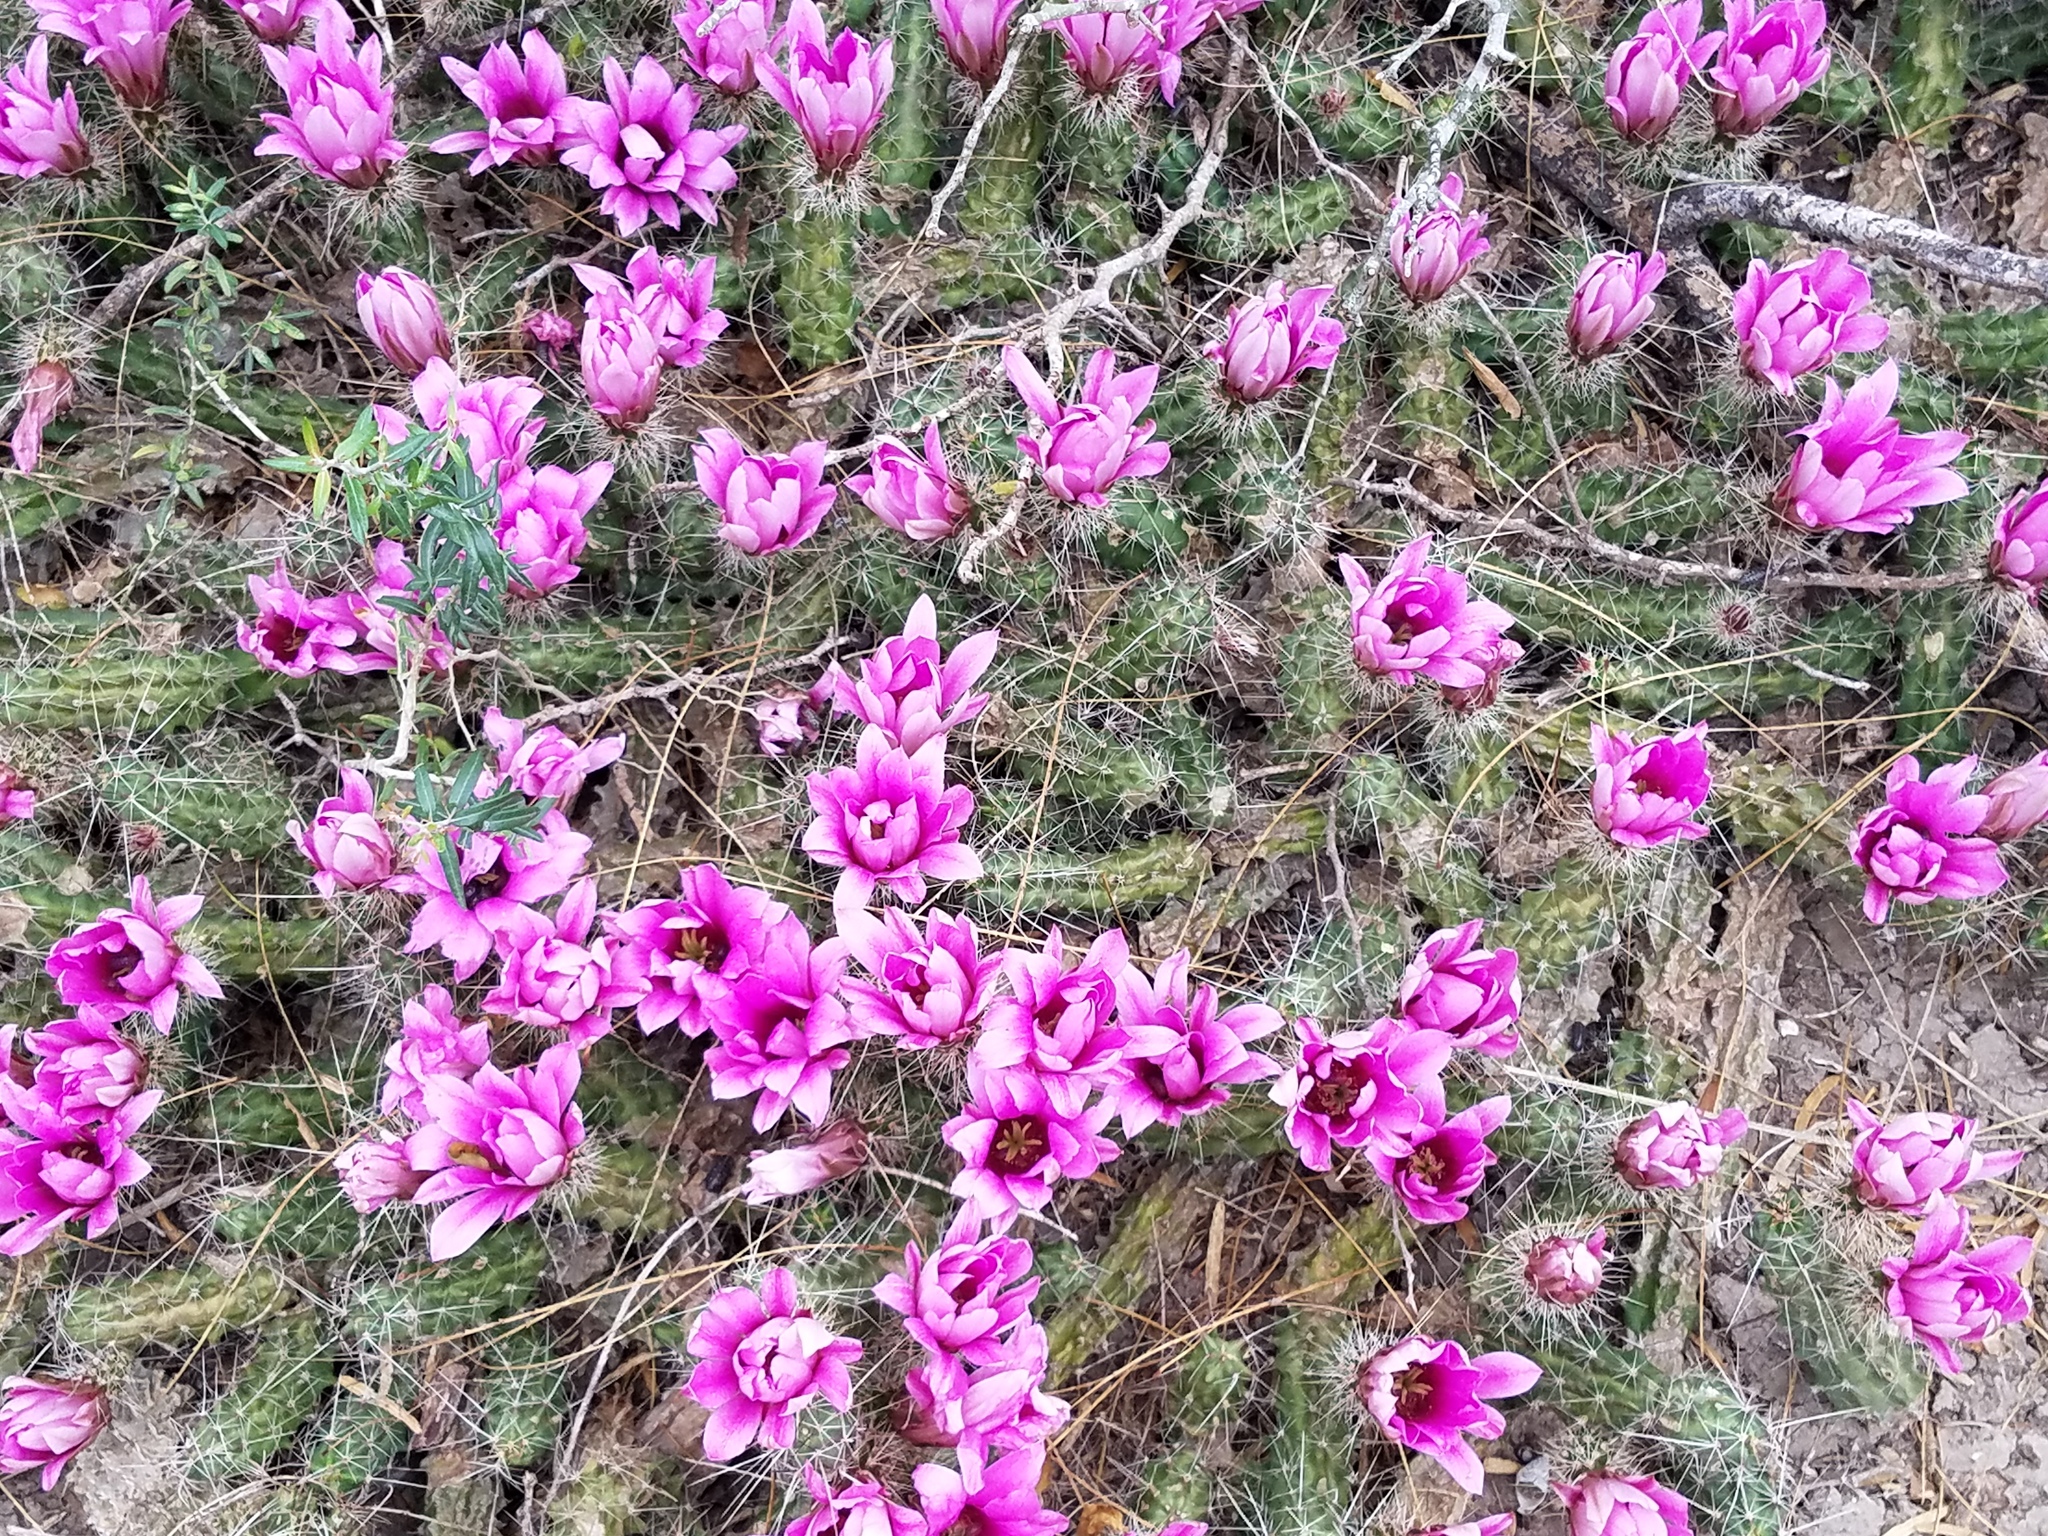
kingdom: Plantae
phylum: Tracheophyta
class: Magnoliopsida
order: Caryophyllales
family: Cactaceae
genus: Echinocereus
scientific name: Echinocereus berlandieri
